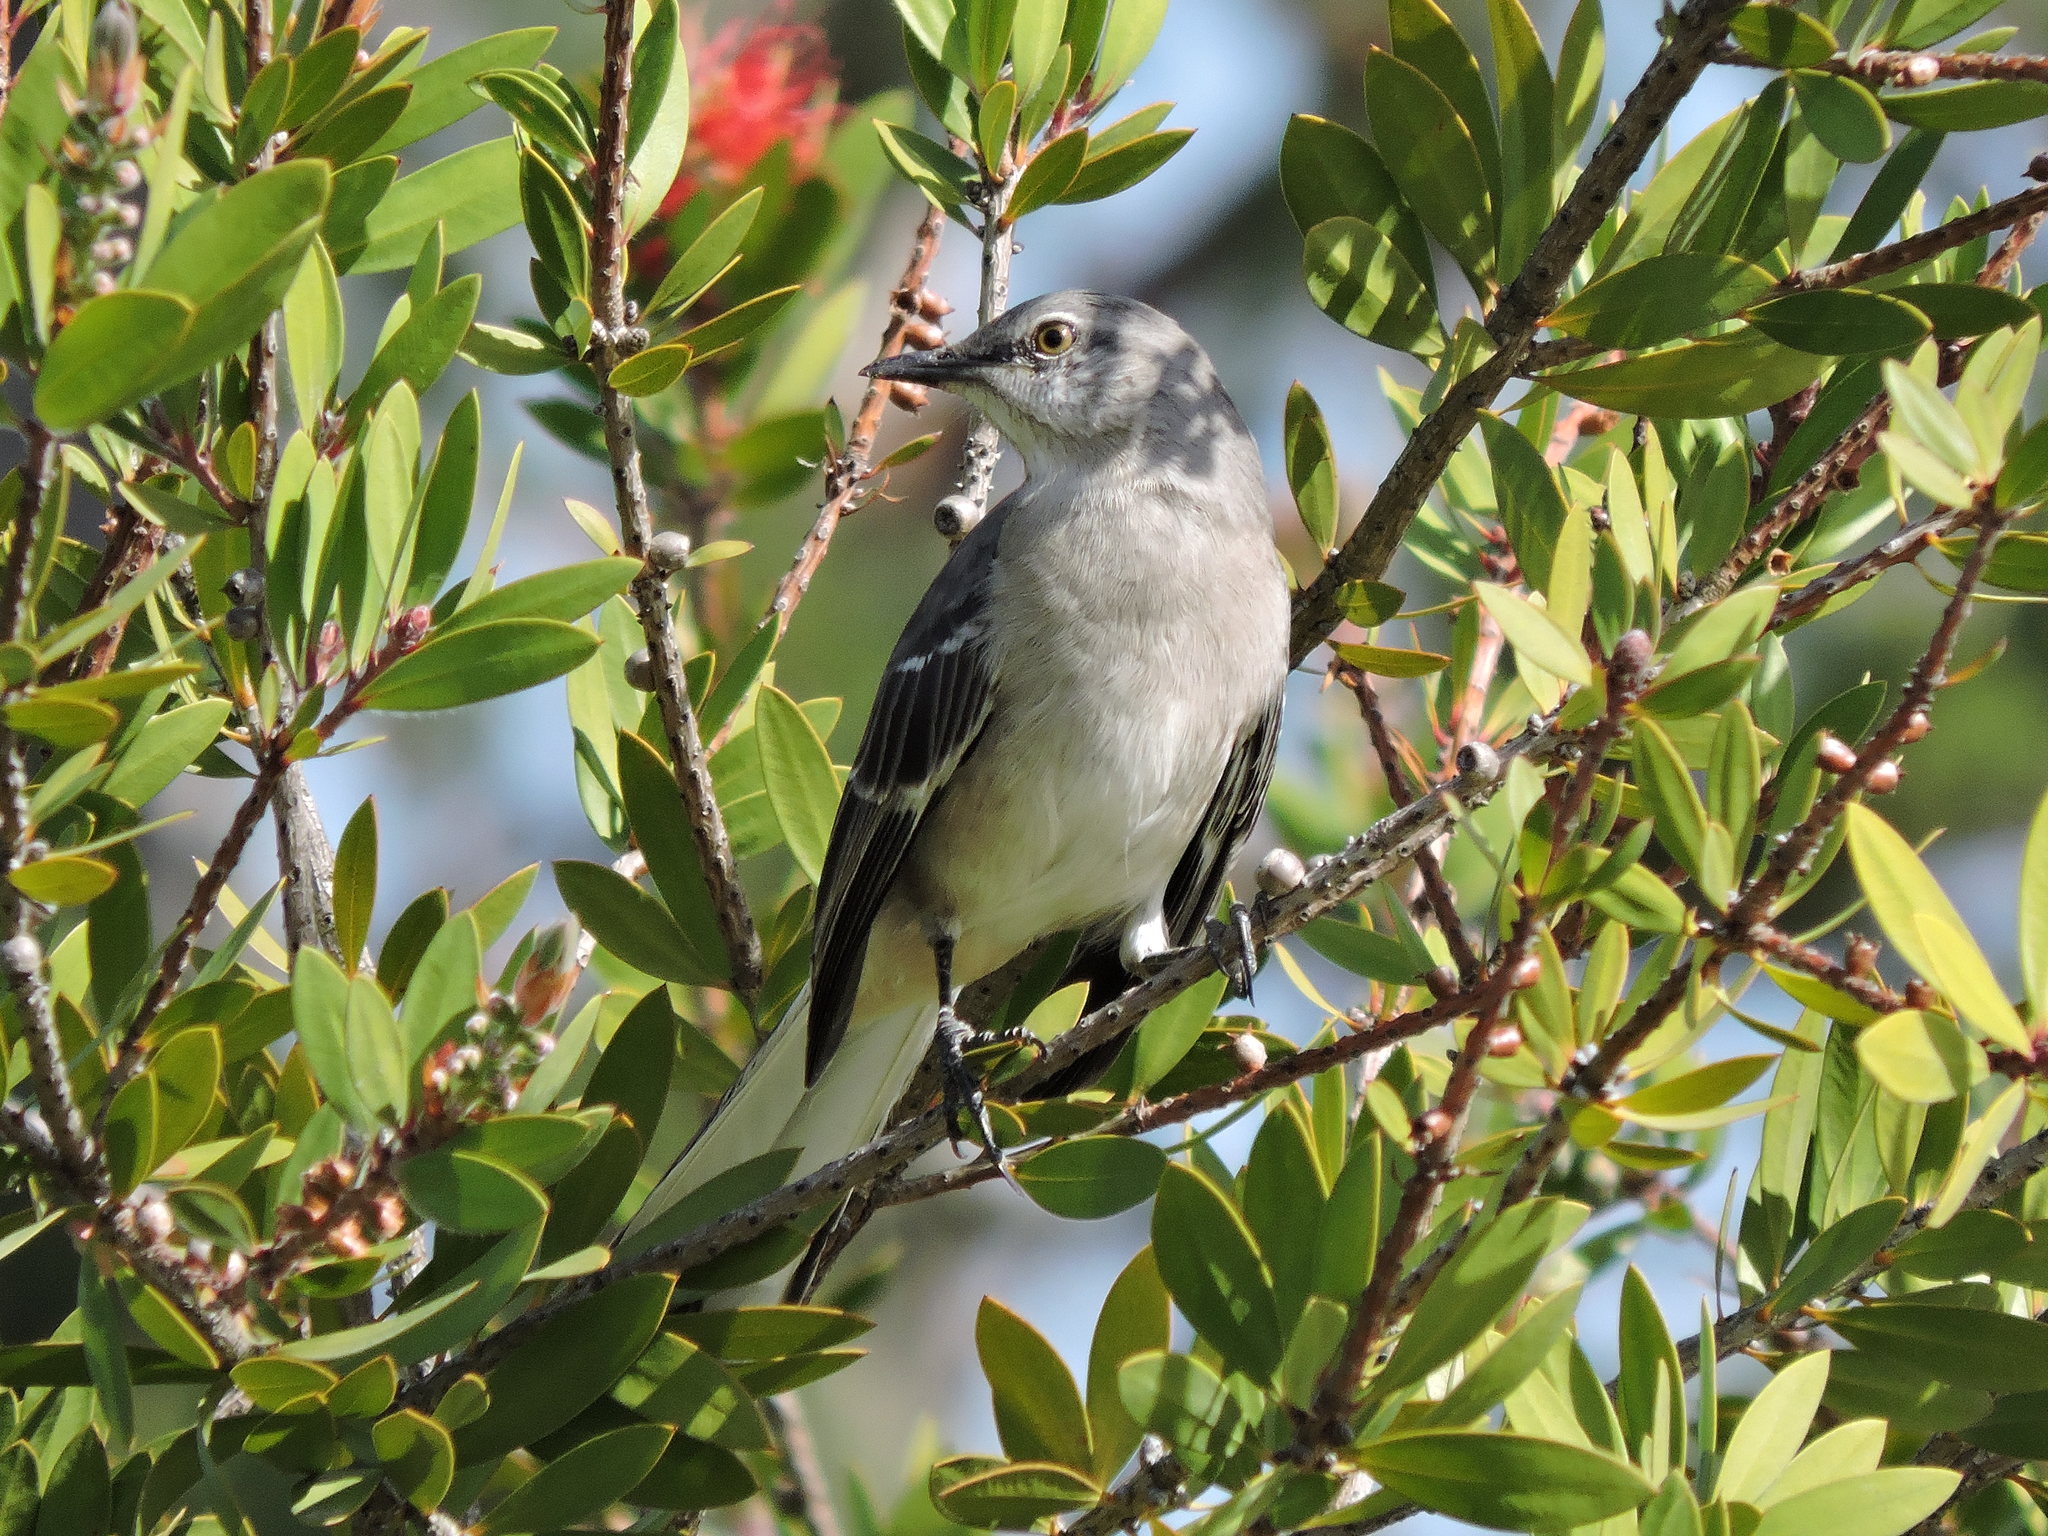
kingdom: Animalia
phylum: Chordata
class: Aves
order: Passeriformes
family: Mimidae
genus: Mimus
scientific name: Mimus polyglottos
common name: Northern mockingbird
